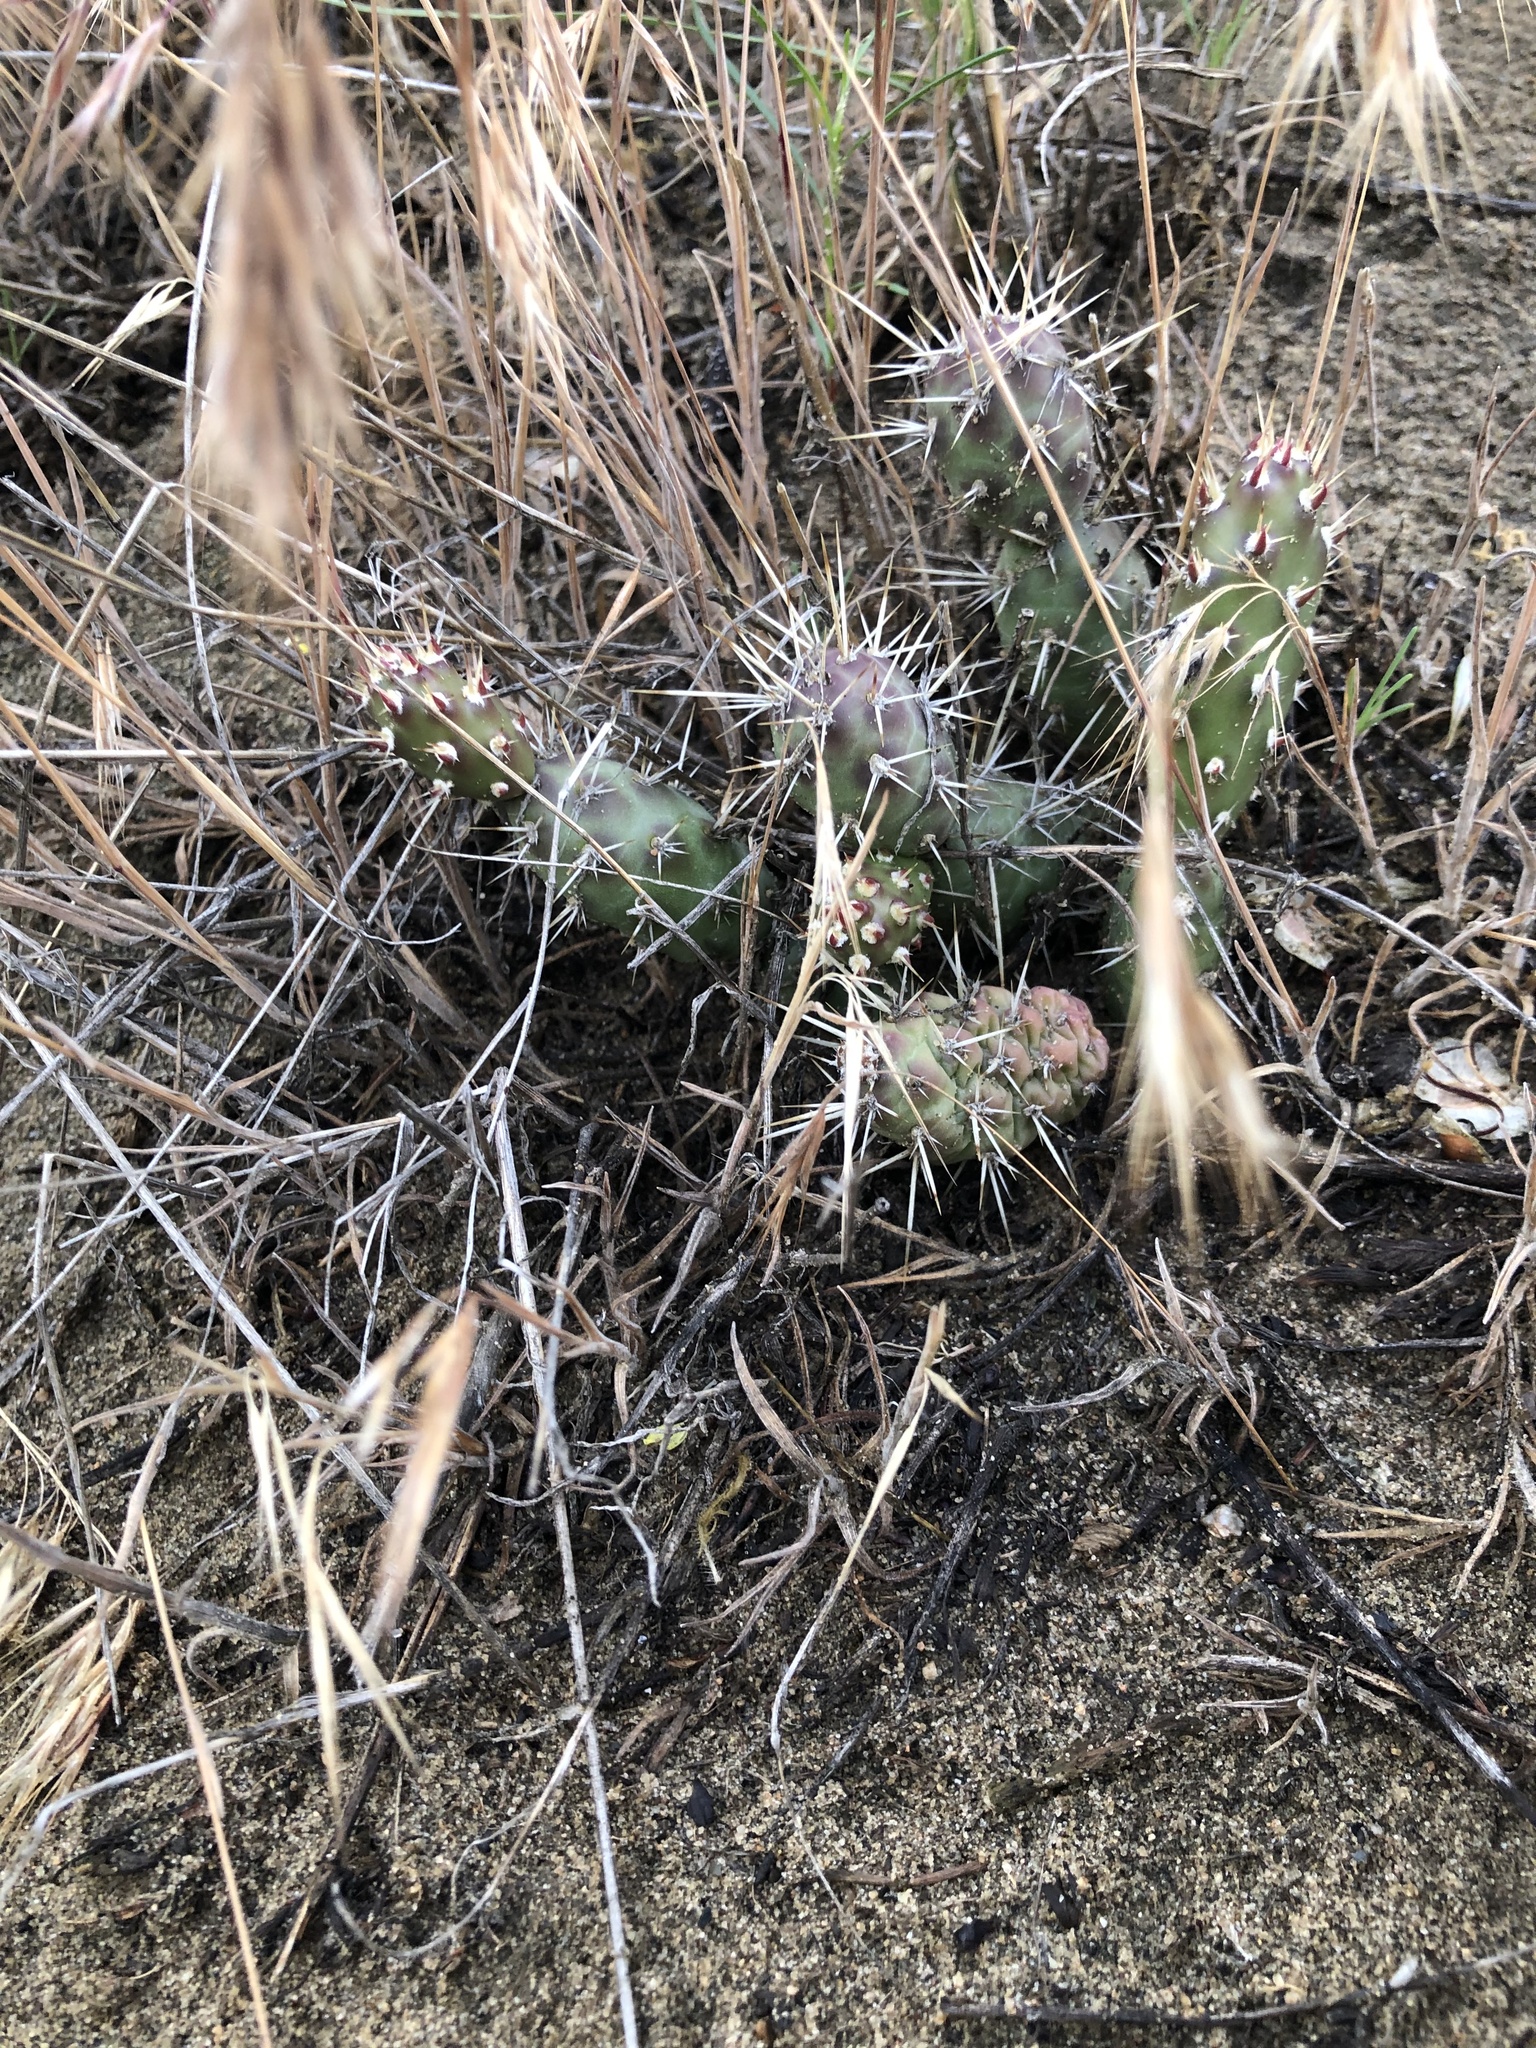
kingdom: Plantae
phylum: Tracheophyta
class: Magnoliopsida
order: Caryophyllales
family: Cactaceae
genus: Opuntia
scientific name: Opuntia fragilis
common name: Brittle cactus
